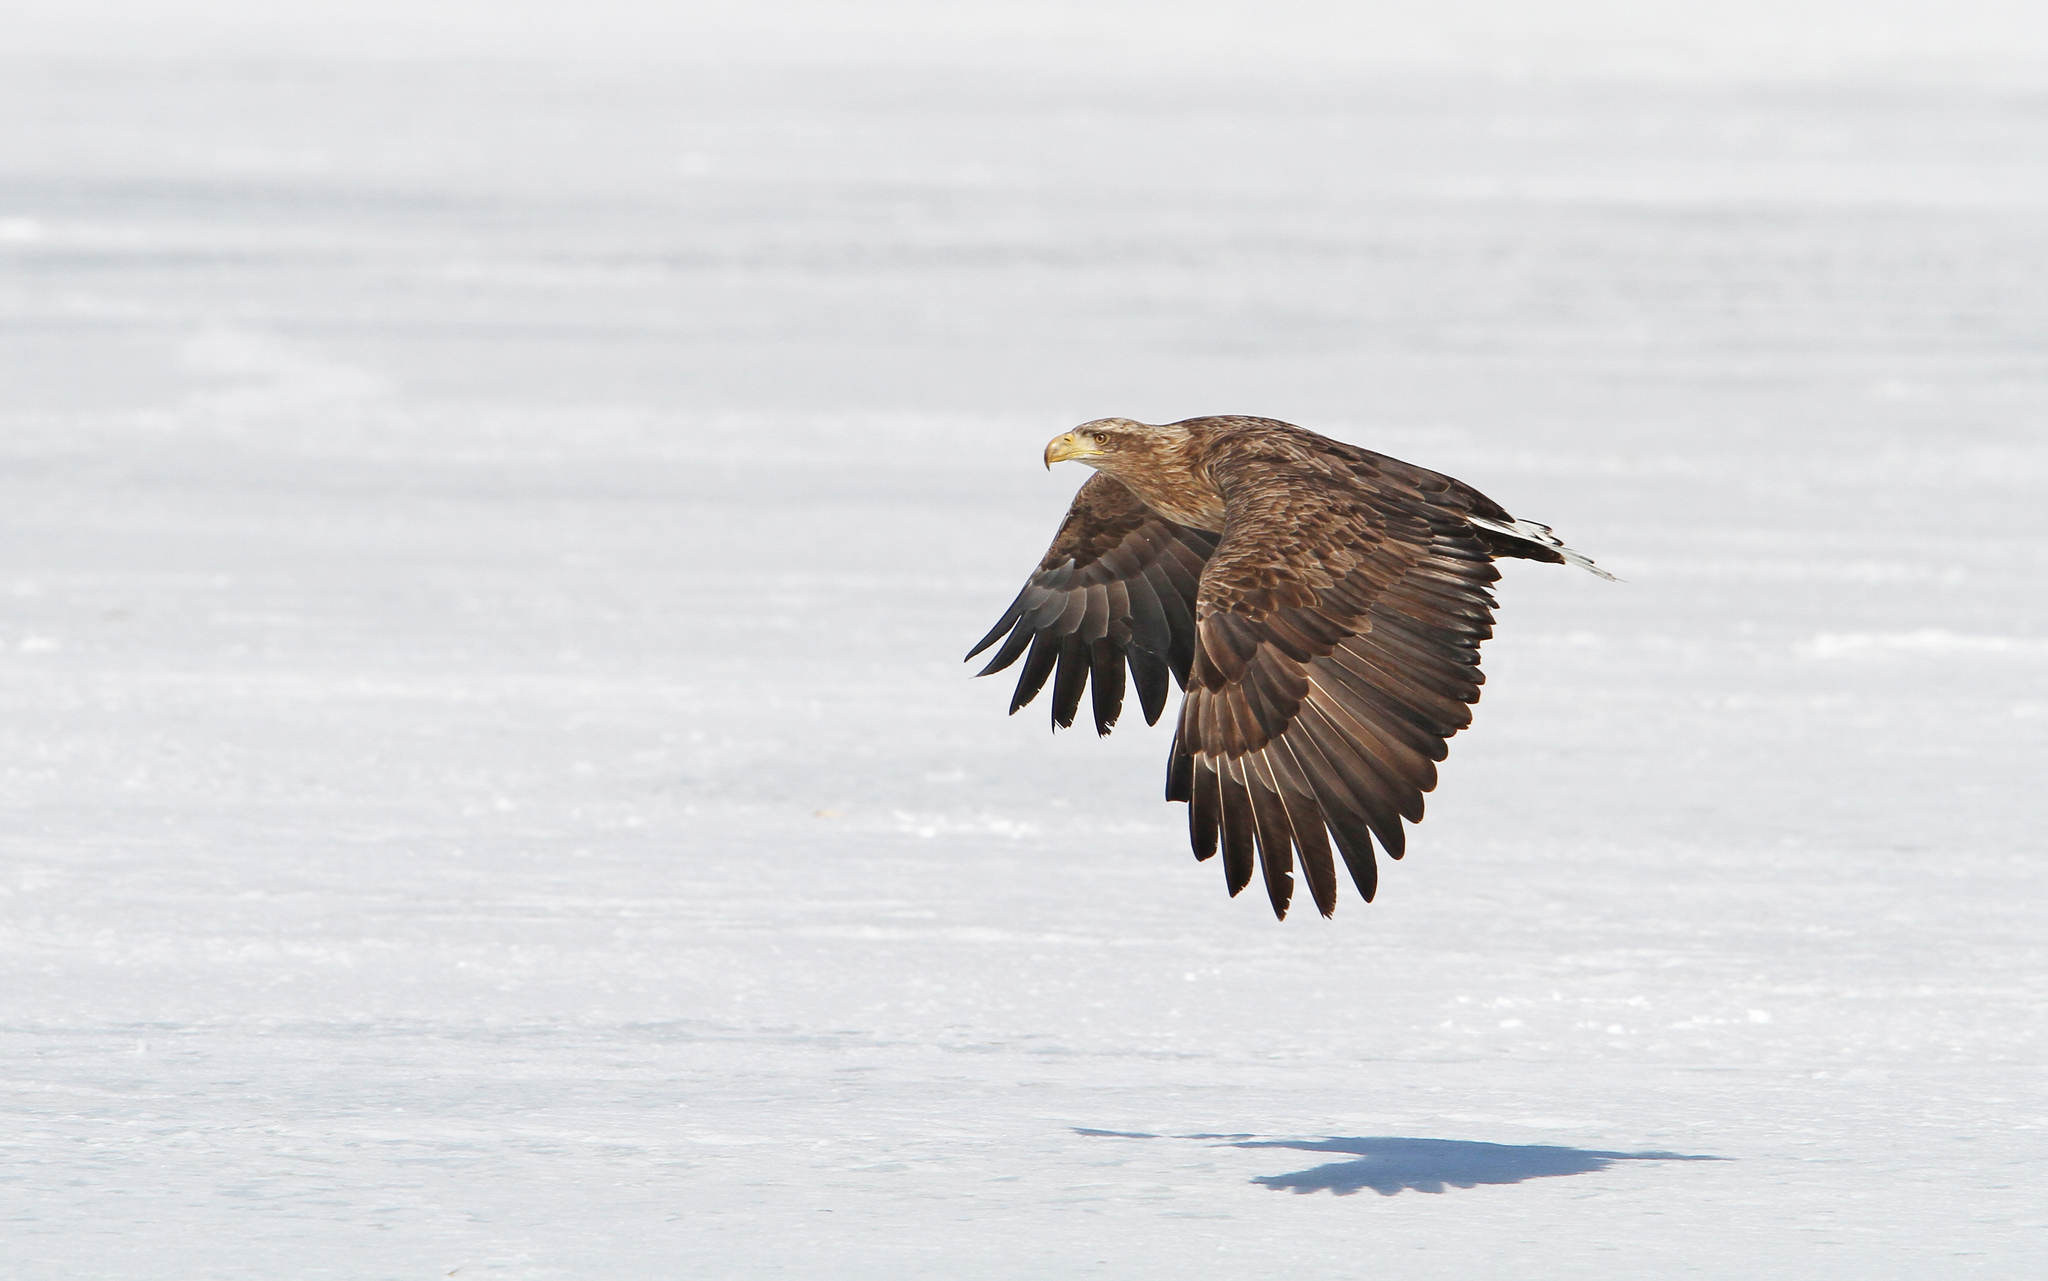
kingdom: Animalia
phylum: Chordata
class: Aves
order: Accipitriformes
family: Accipitridae
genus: Haliaeetus
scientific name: Haliaeetus albicilla
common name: White-tailed eagle
